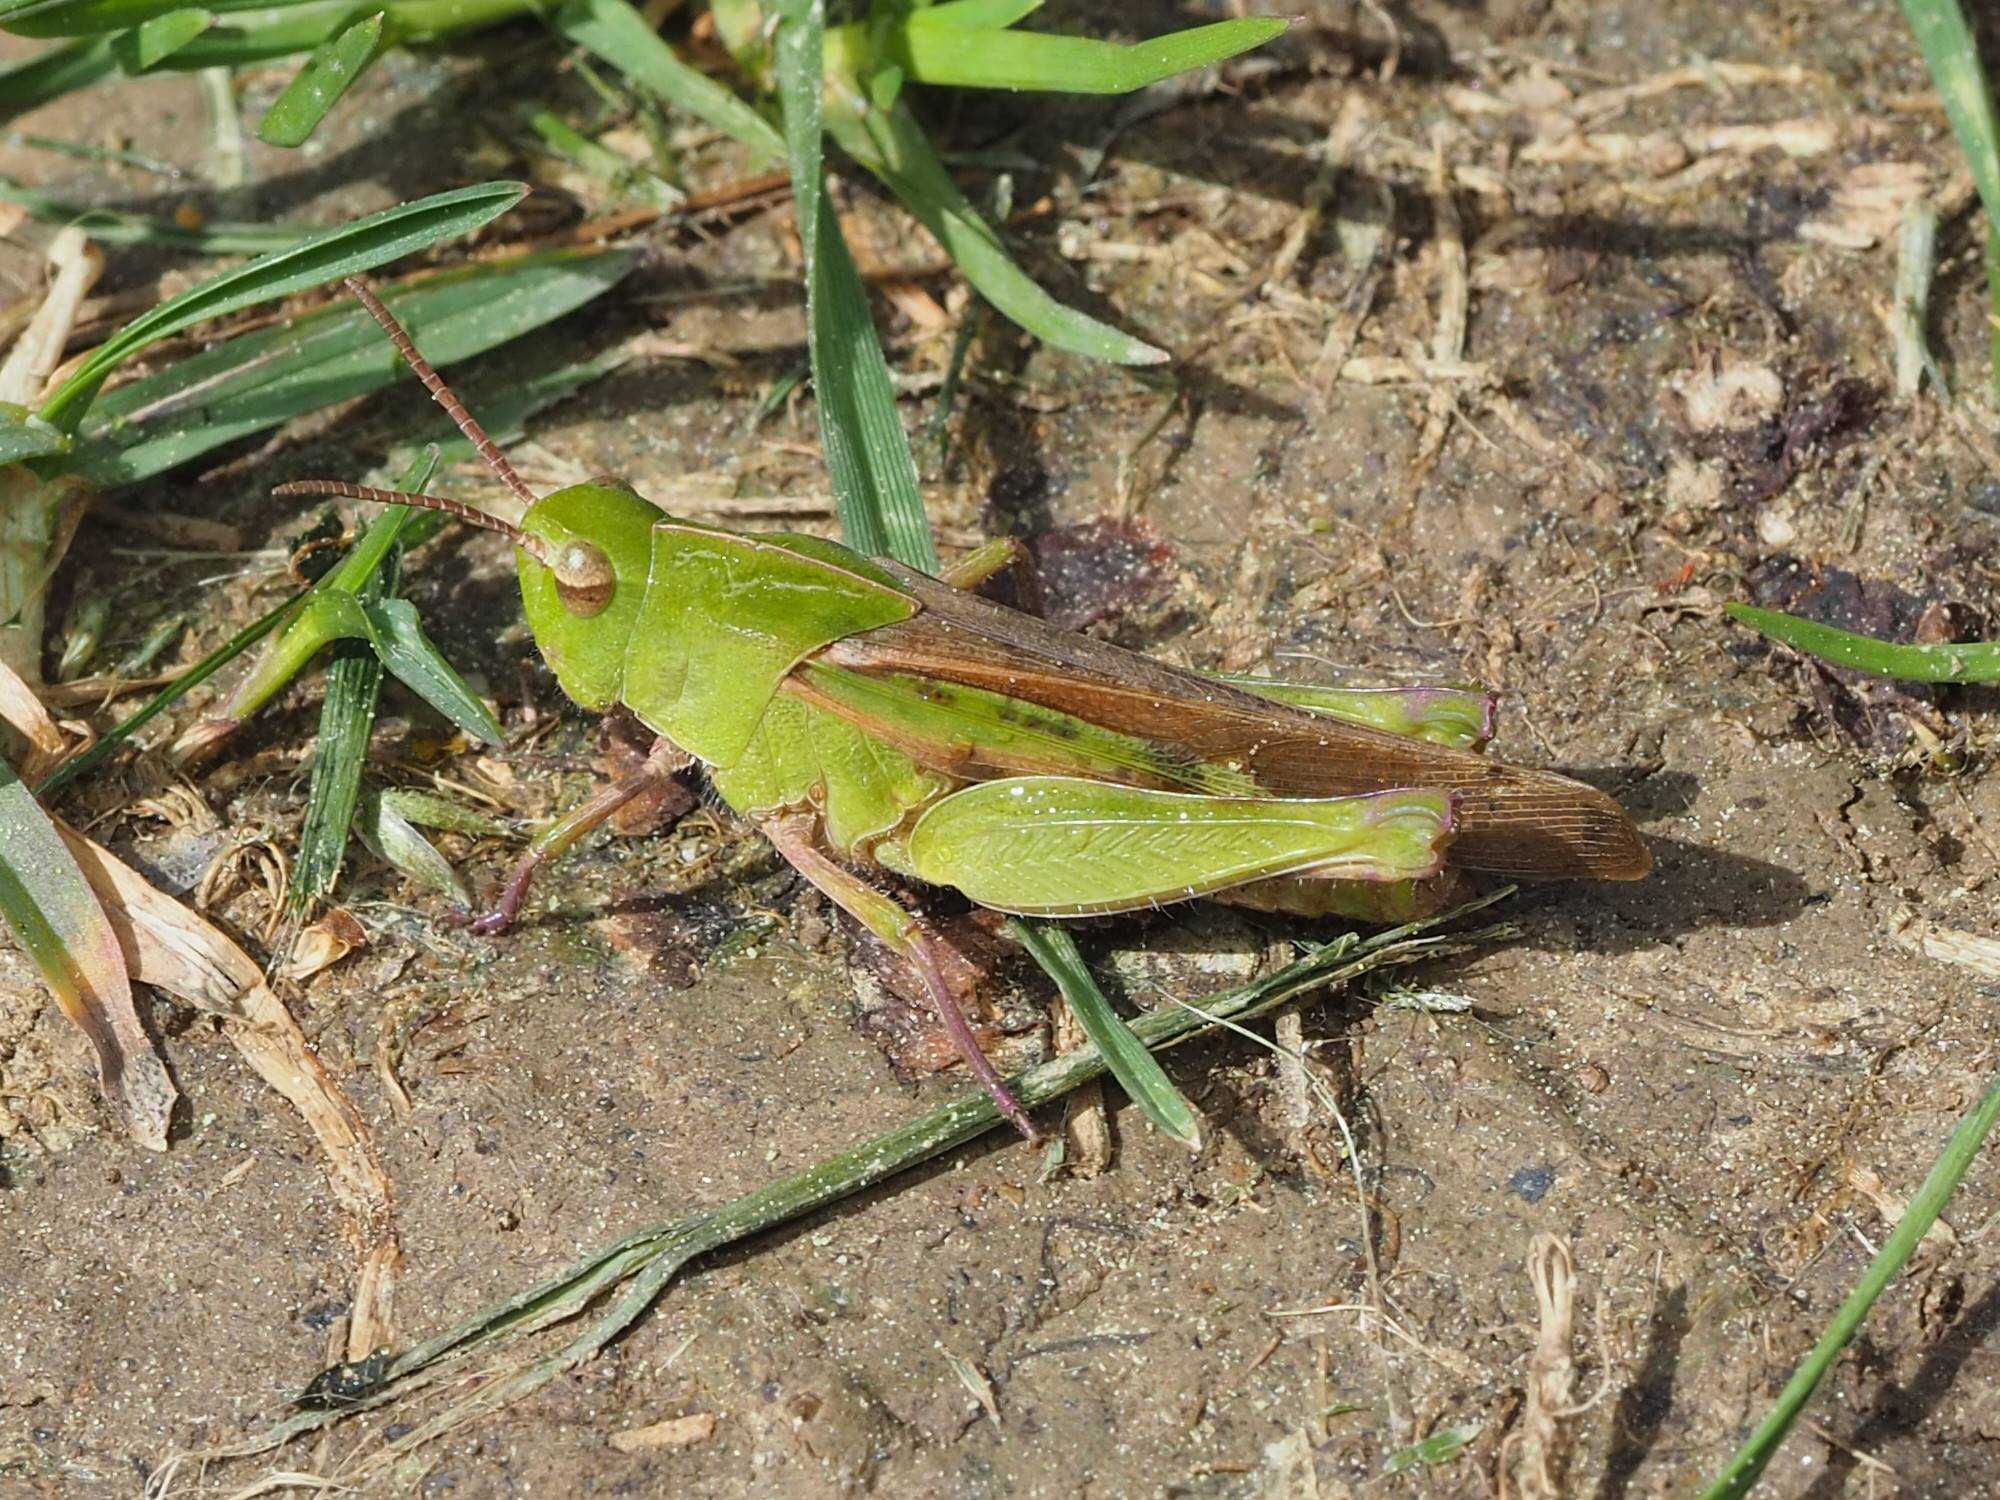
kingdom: Animalia
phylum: Arthropoda
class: Insecta
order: Orthoptera
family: Acrididae
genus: Chortophaga
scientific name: Chortophaga viridifasciata
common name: Green-striped grasshopper
